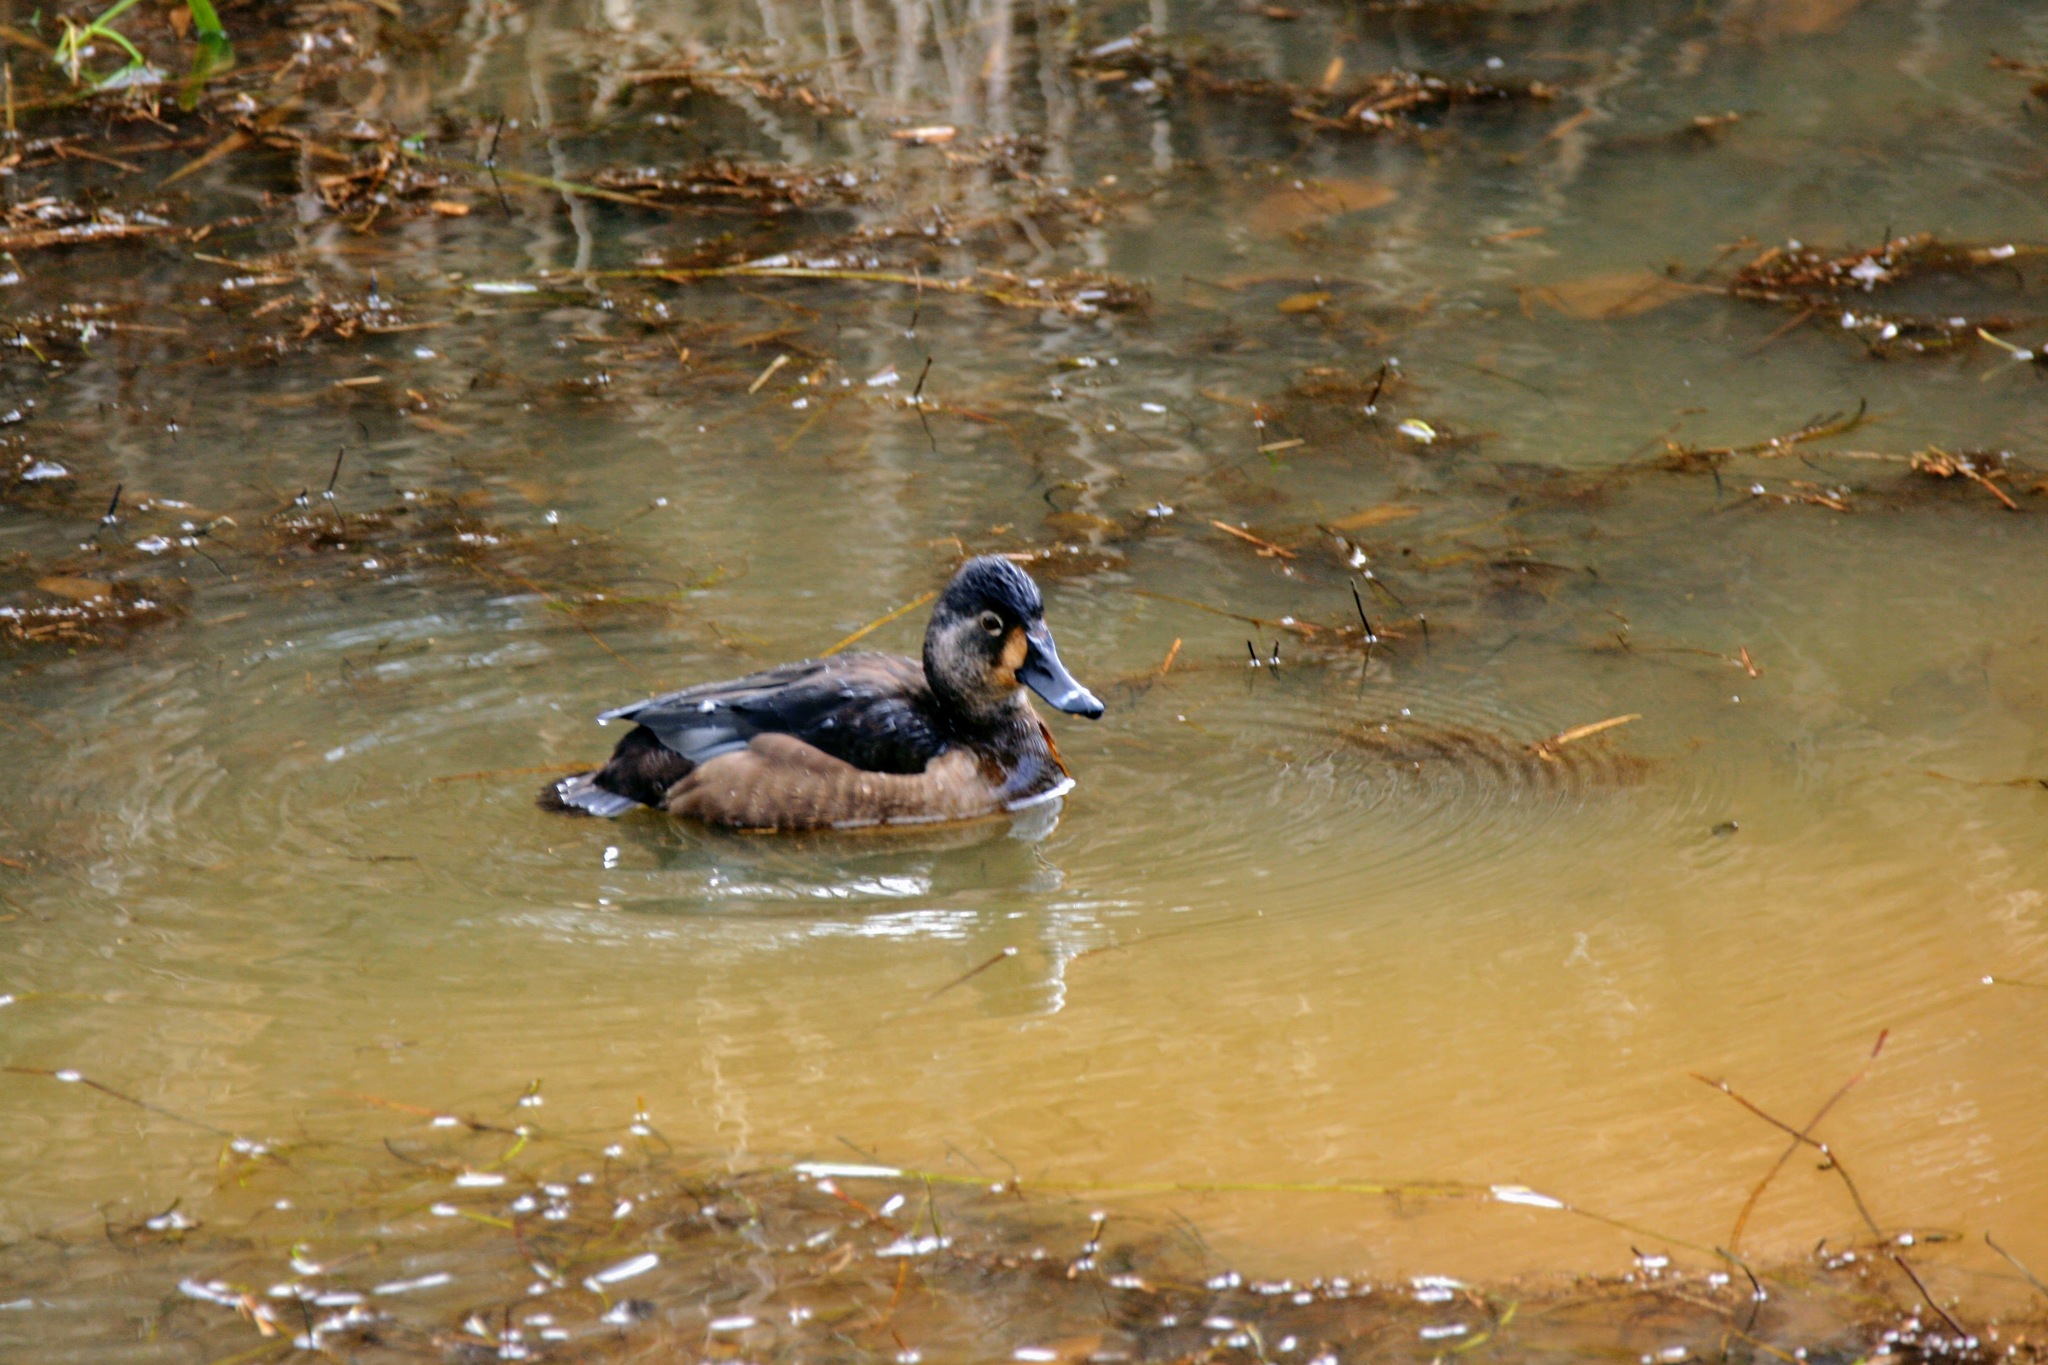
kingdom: Animalia
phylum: Chordata
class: Aves
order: Anseriformes
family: Anatidae
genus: Aythya
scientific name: Aythya collaris
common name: Ring-necked duck
